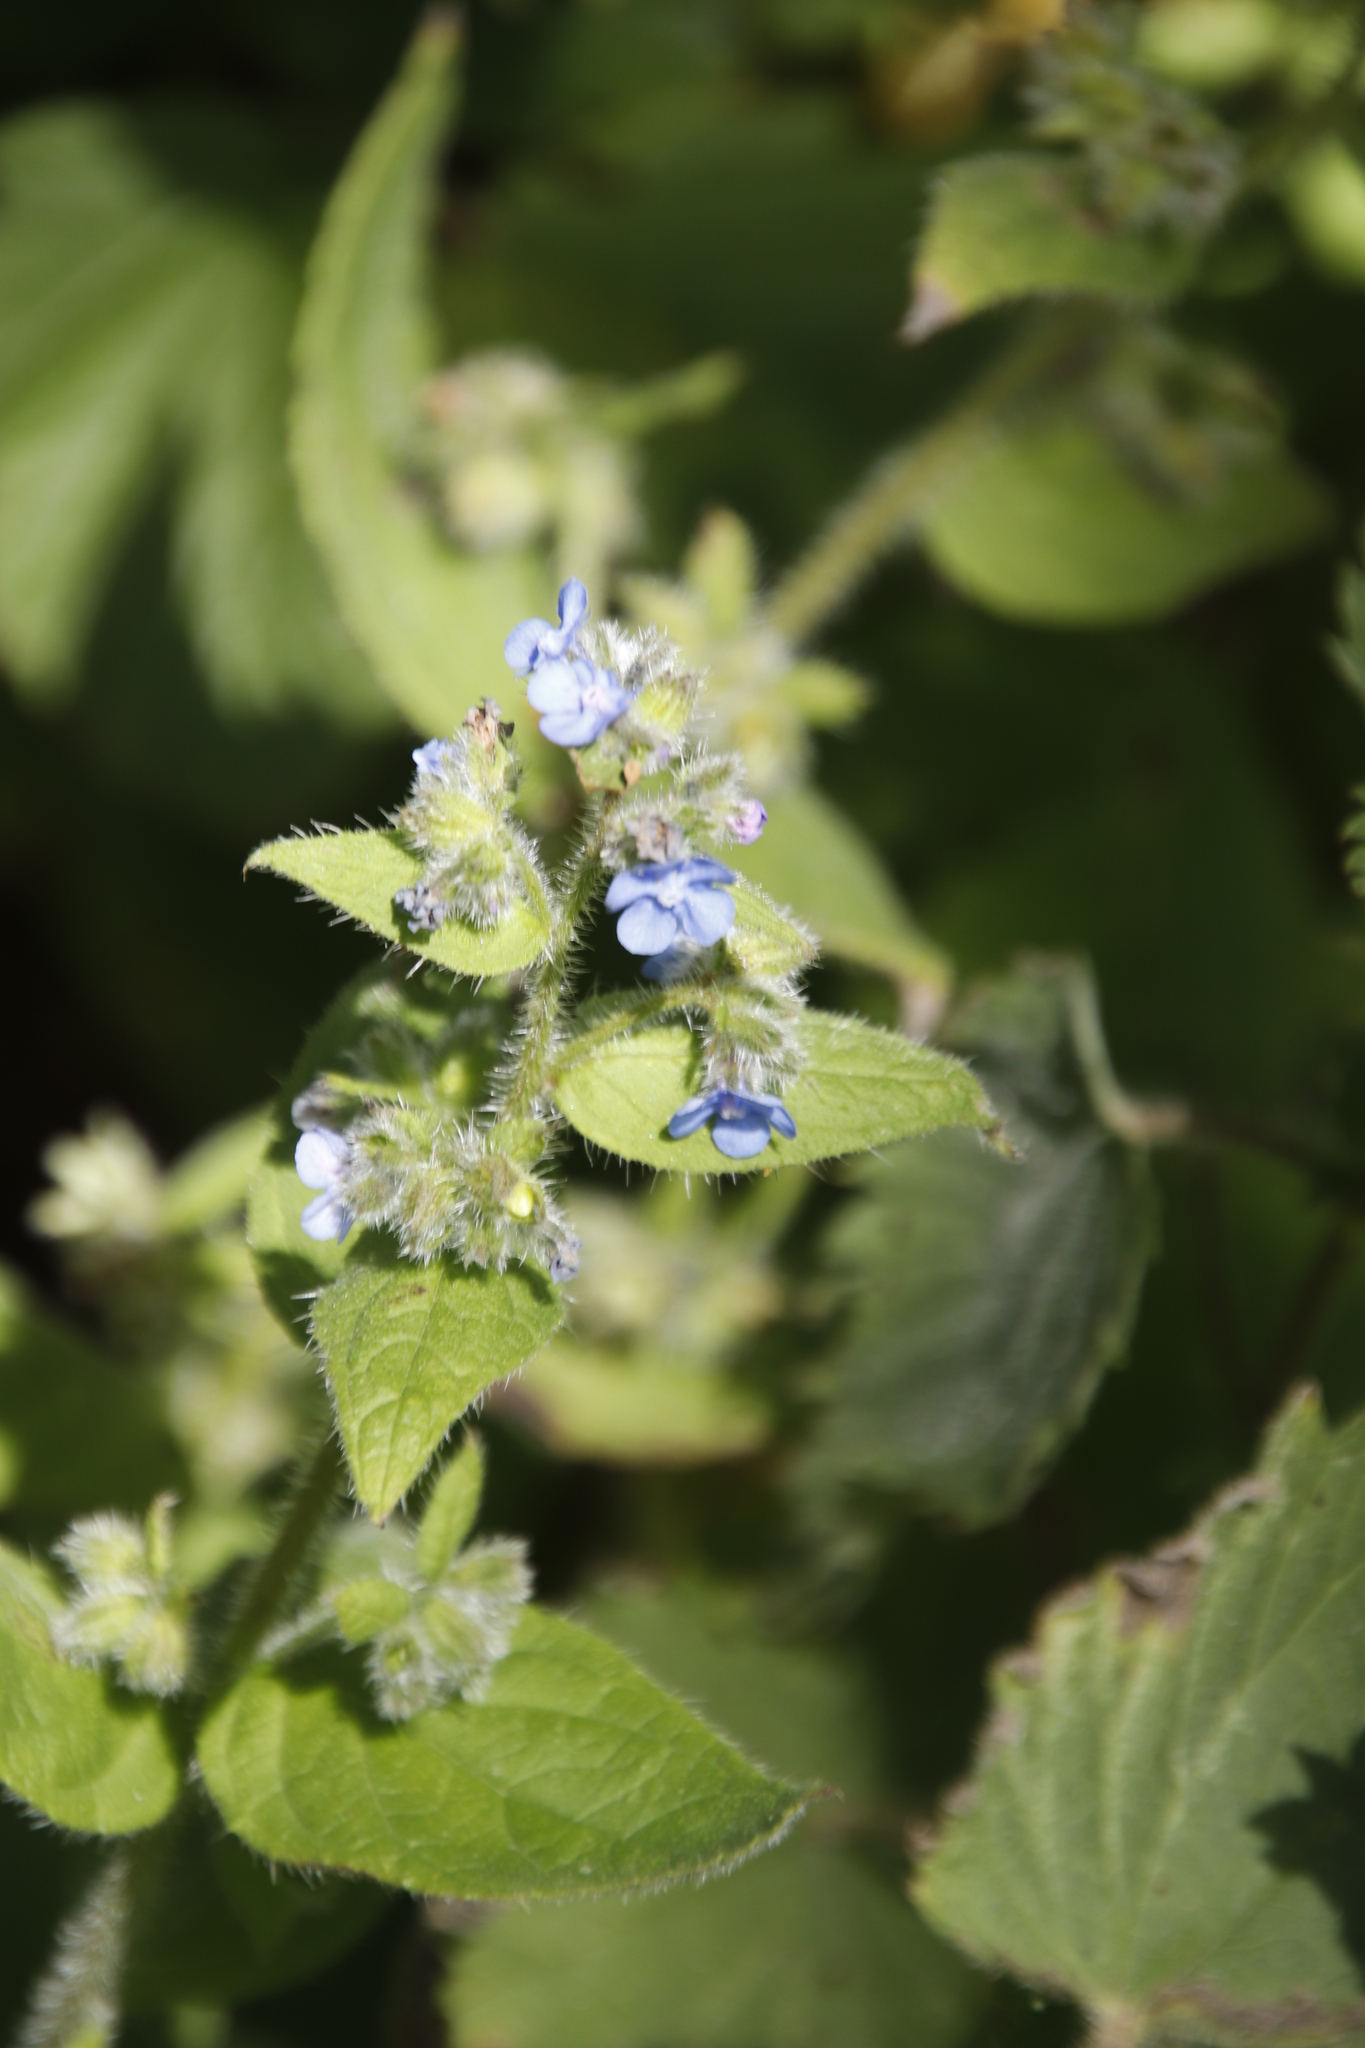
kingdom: Plantae
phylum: Tracheophyta
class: Magnoliopsida
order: Boraginales
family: Boraginaceae
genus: Pentaglottis
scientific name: Pentaglottis sempervirens
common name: Green alkanet
